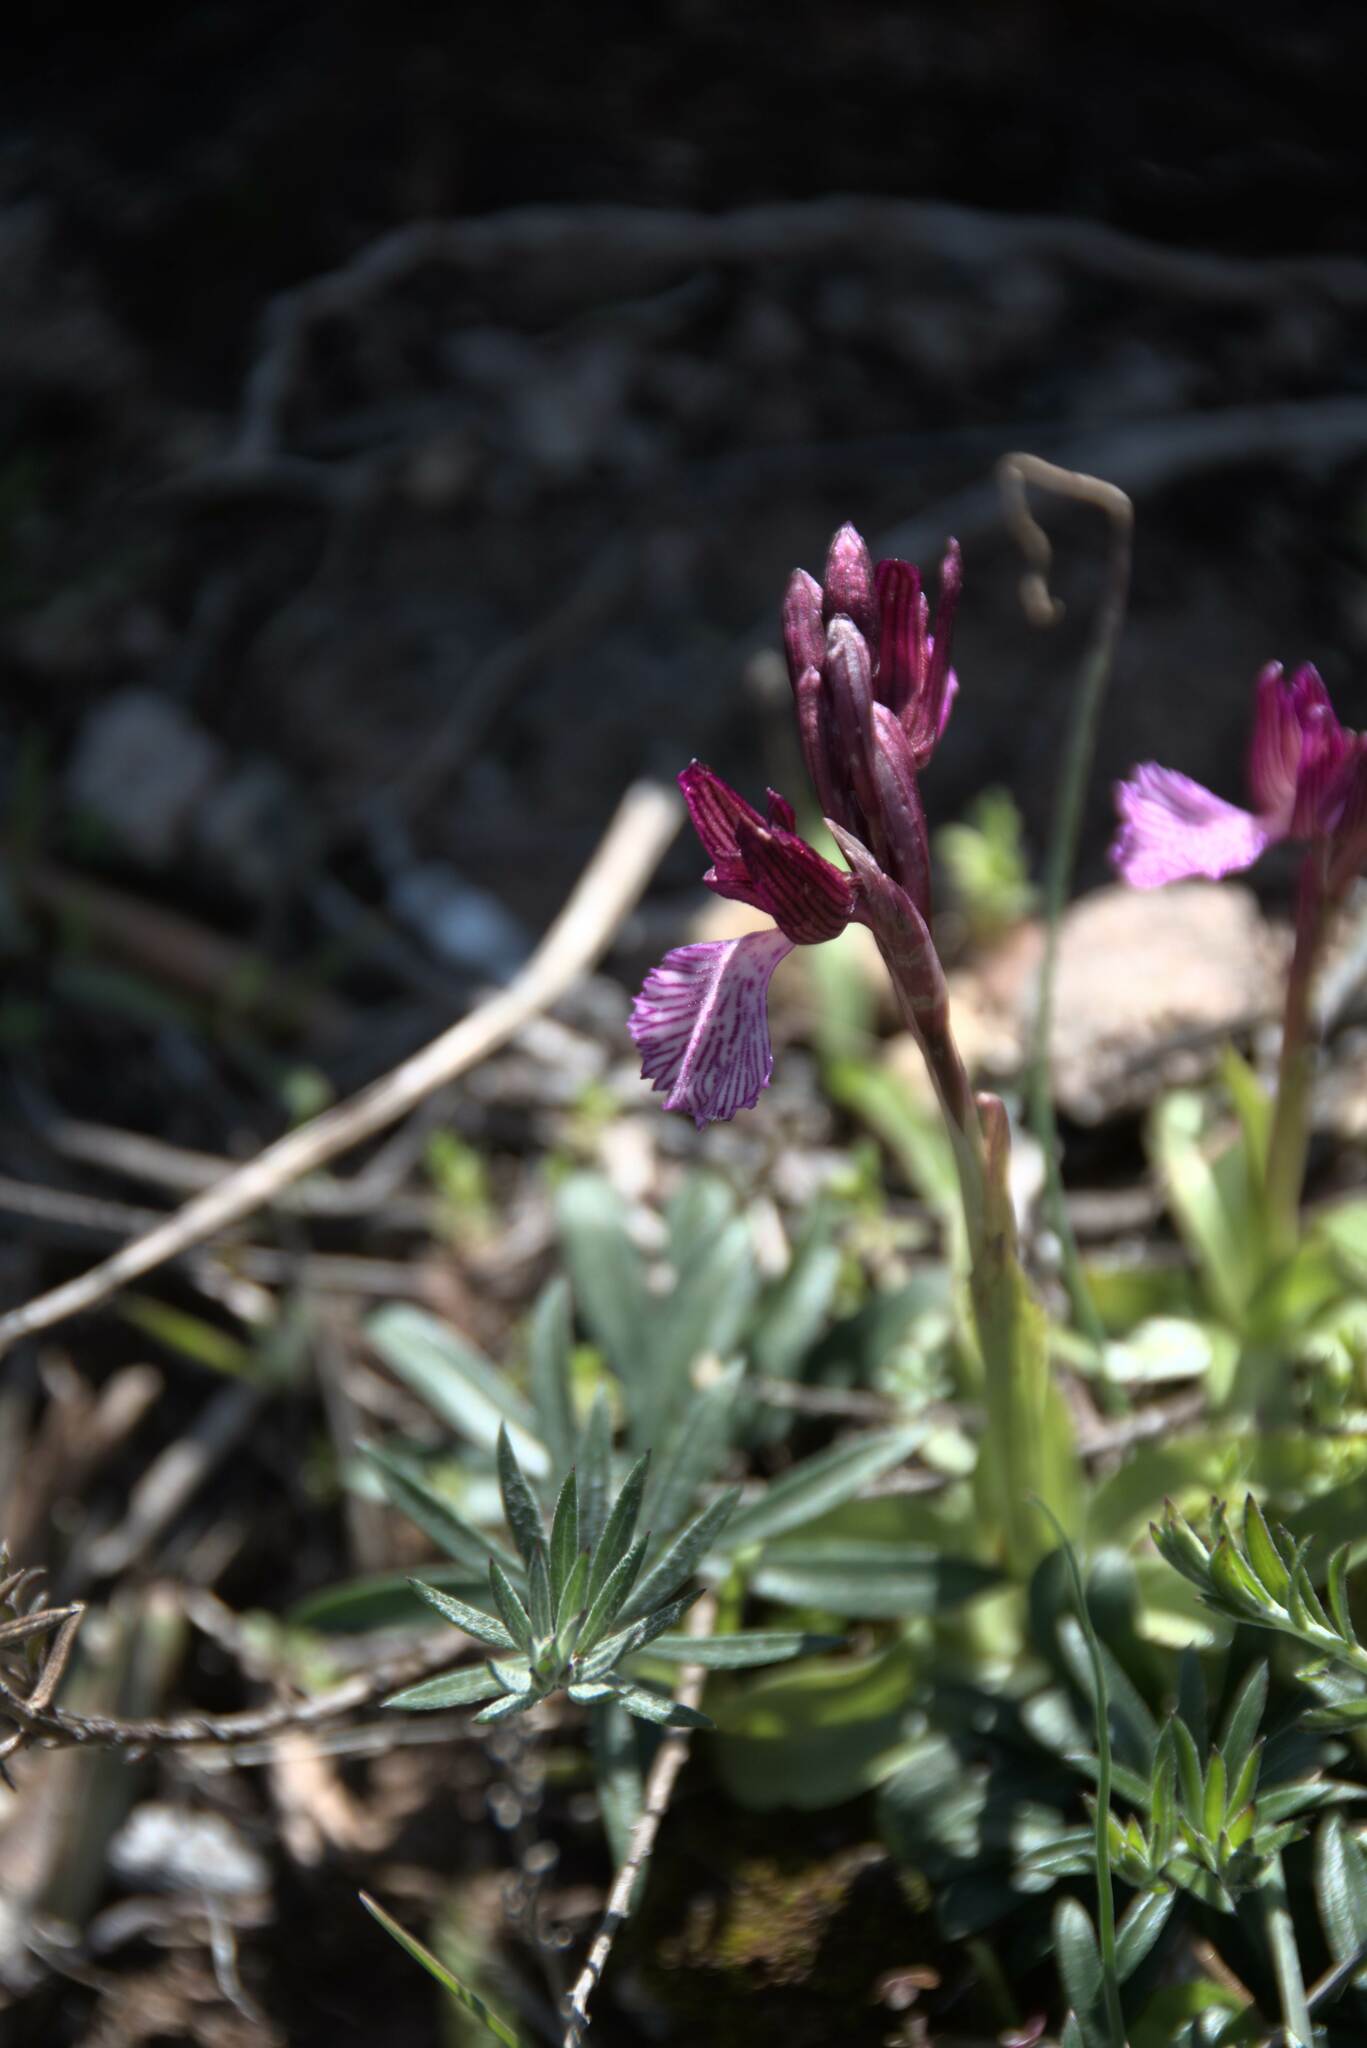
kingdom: Plantae
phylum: Tracheophyta
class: Liliopsida
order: Asparagales
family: Orchidaceae
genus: Anacamptis
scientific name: Anacamptis papilionacea
